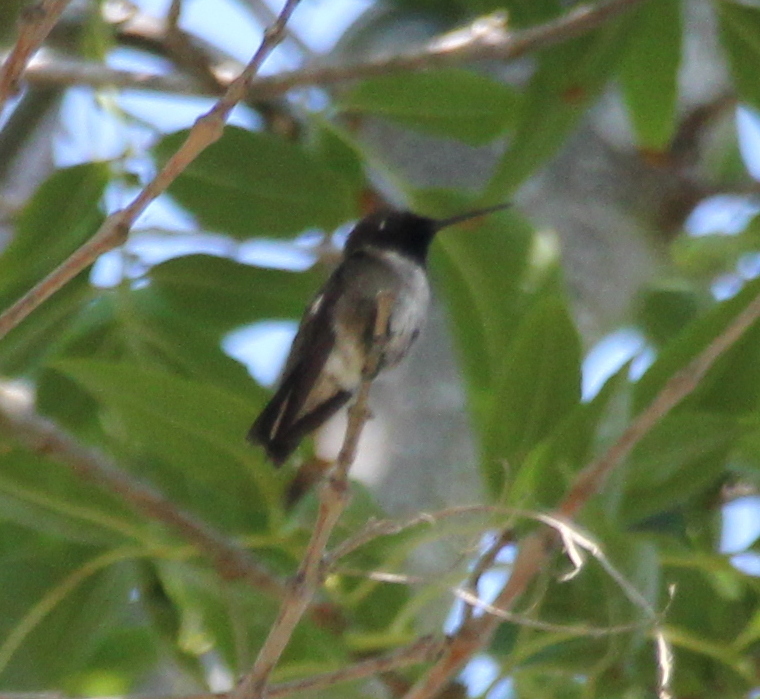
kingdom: Animalia
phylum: Chordata
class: Aves
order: Apodiformes
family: Trochilidae
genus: Archilochus
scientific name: Archilochus alexandri
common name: Black-chinned hummingbird
